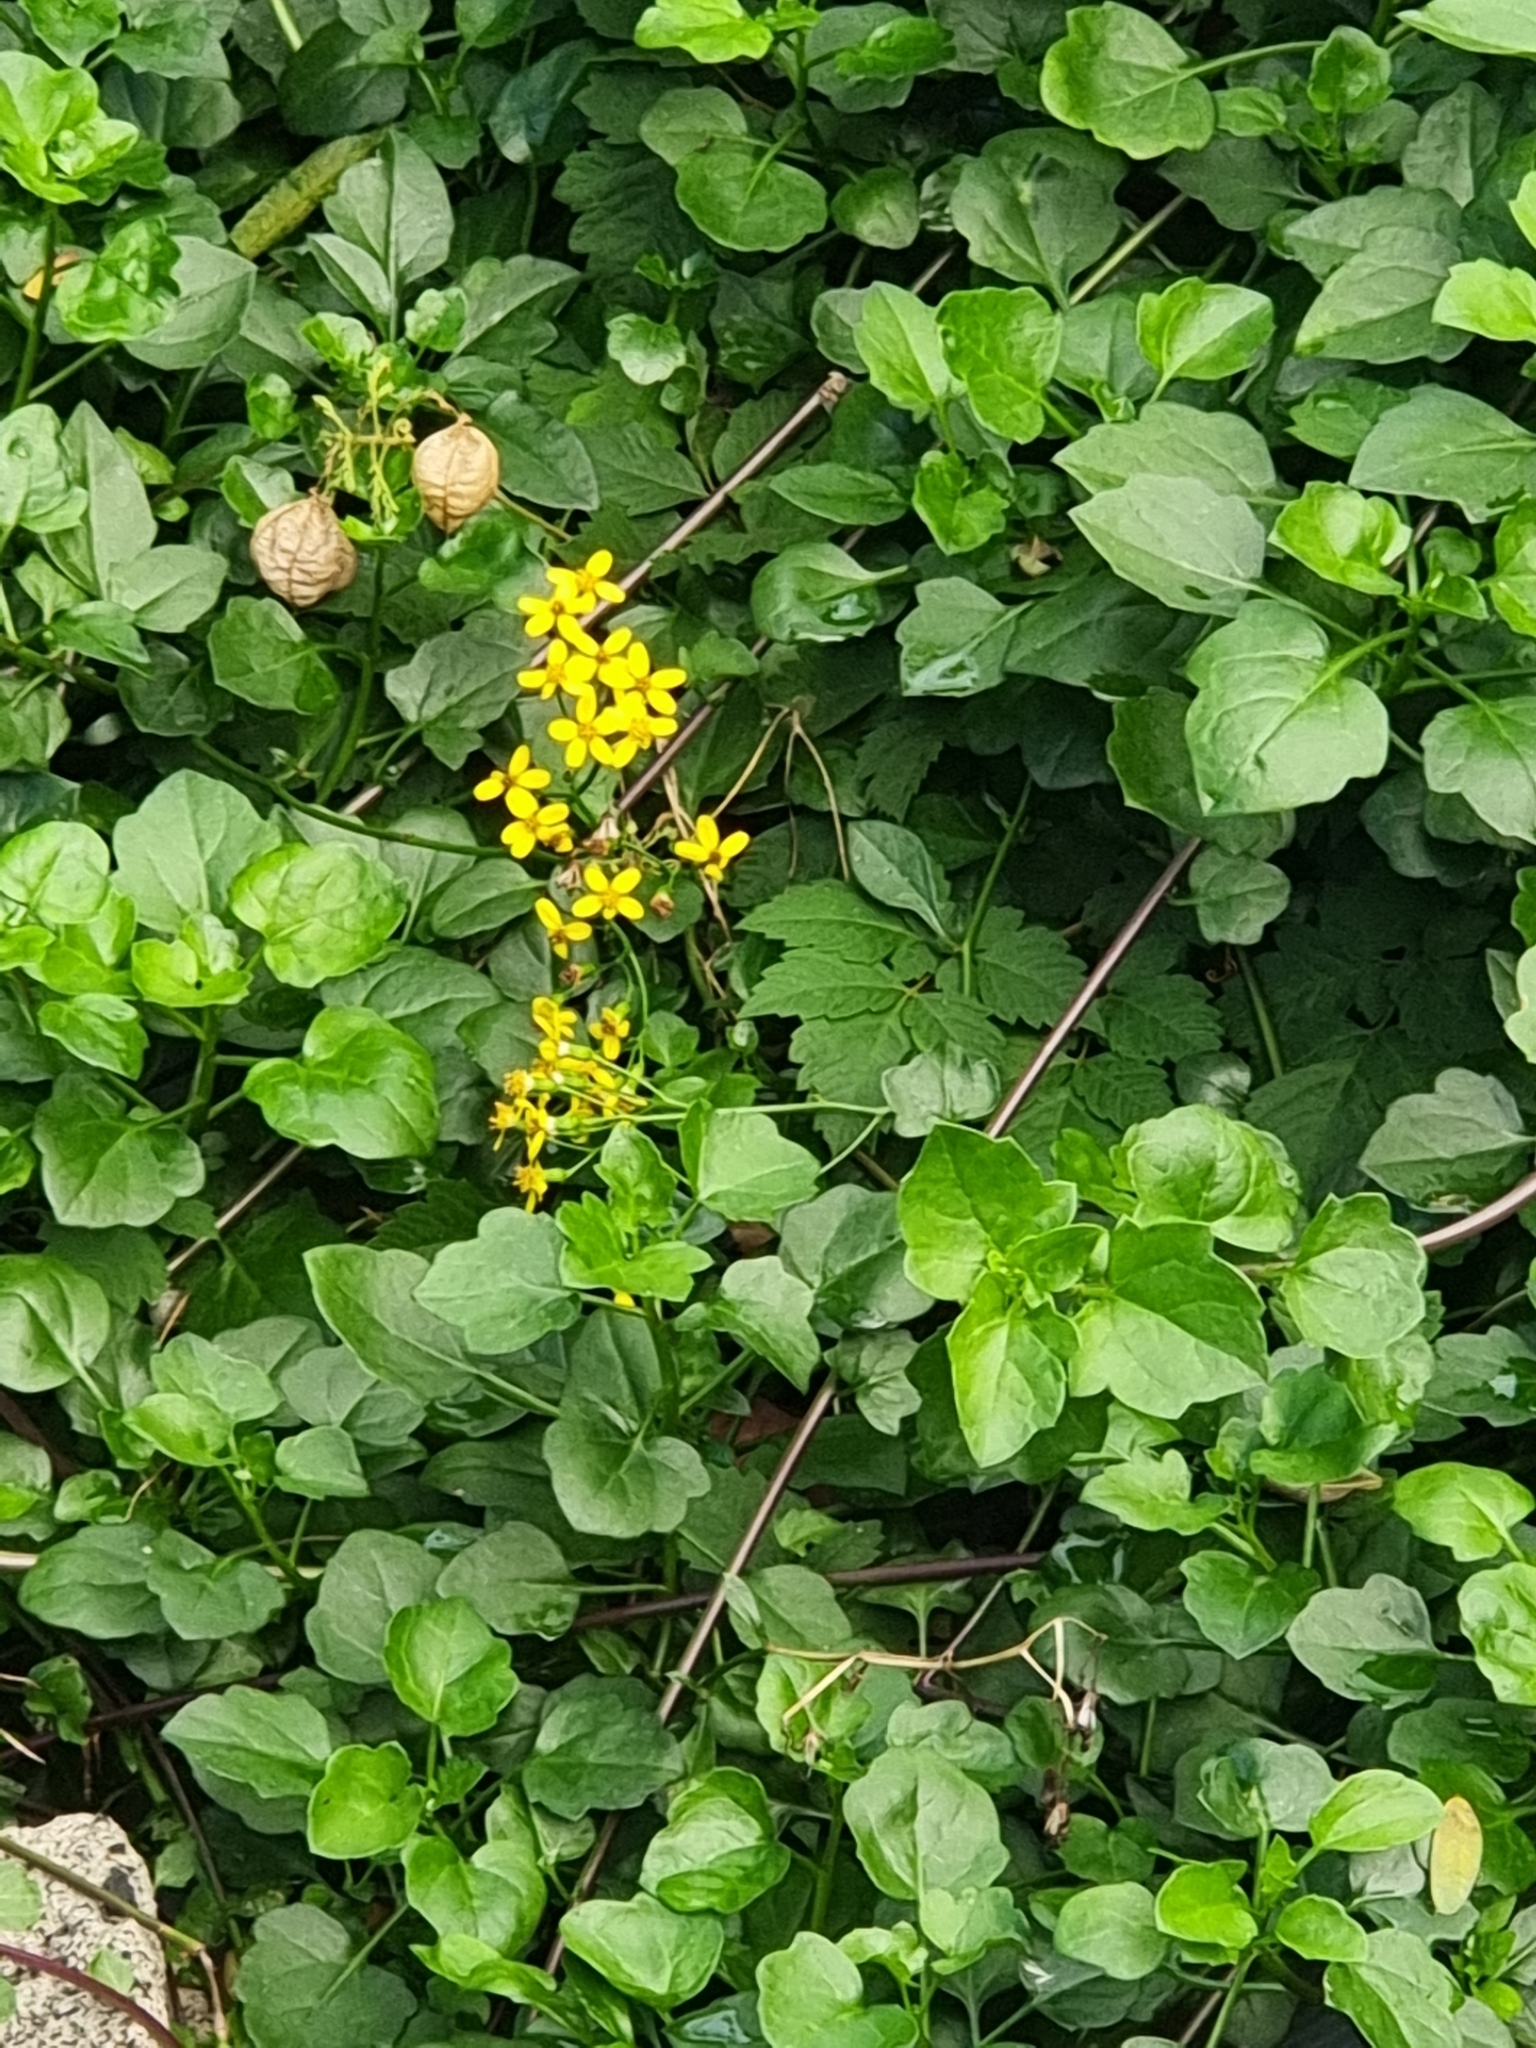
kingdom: Plantae
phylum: Tracheophyta
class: Magnoliopsida
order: Asterales
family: Asteraceae
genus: Senecio
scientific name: Senecio angulatus
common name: Climbing groundsel
